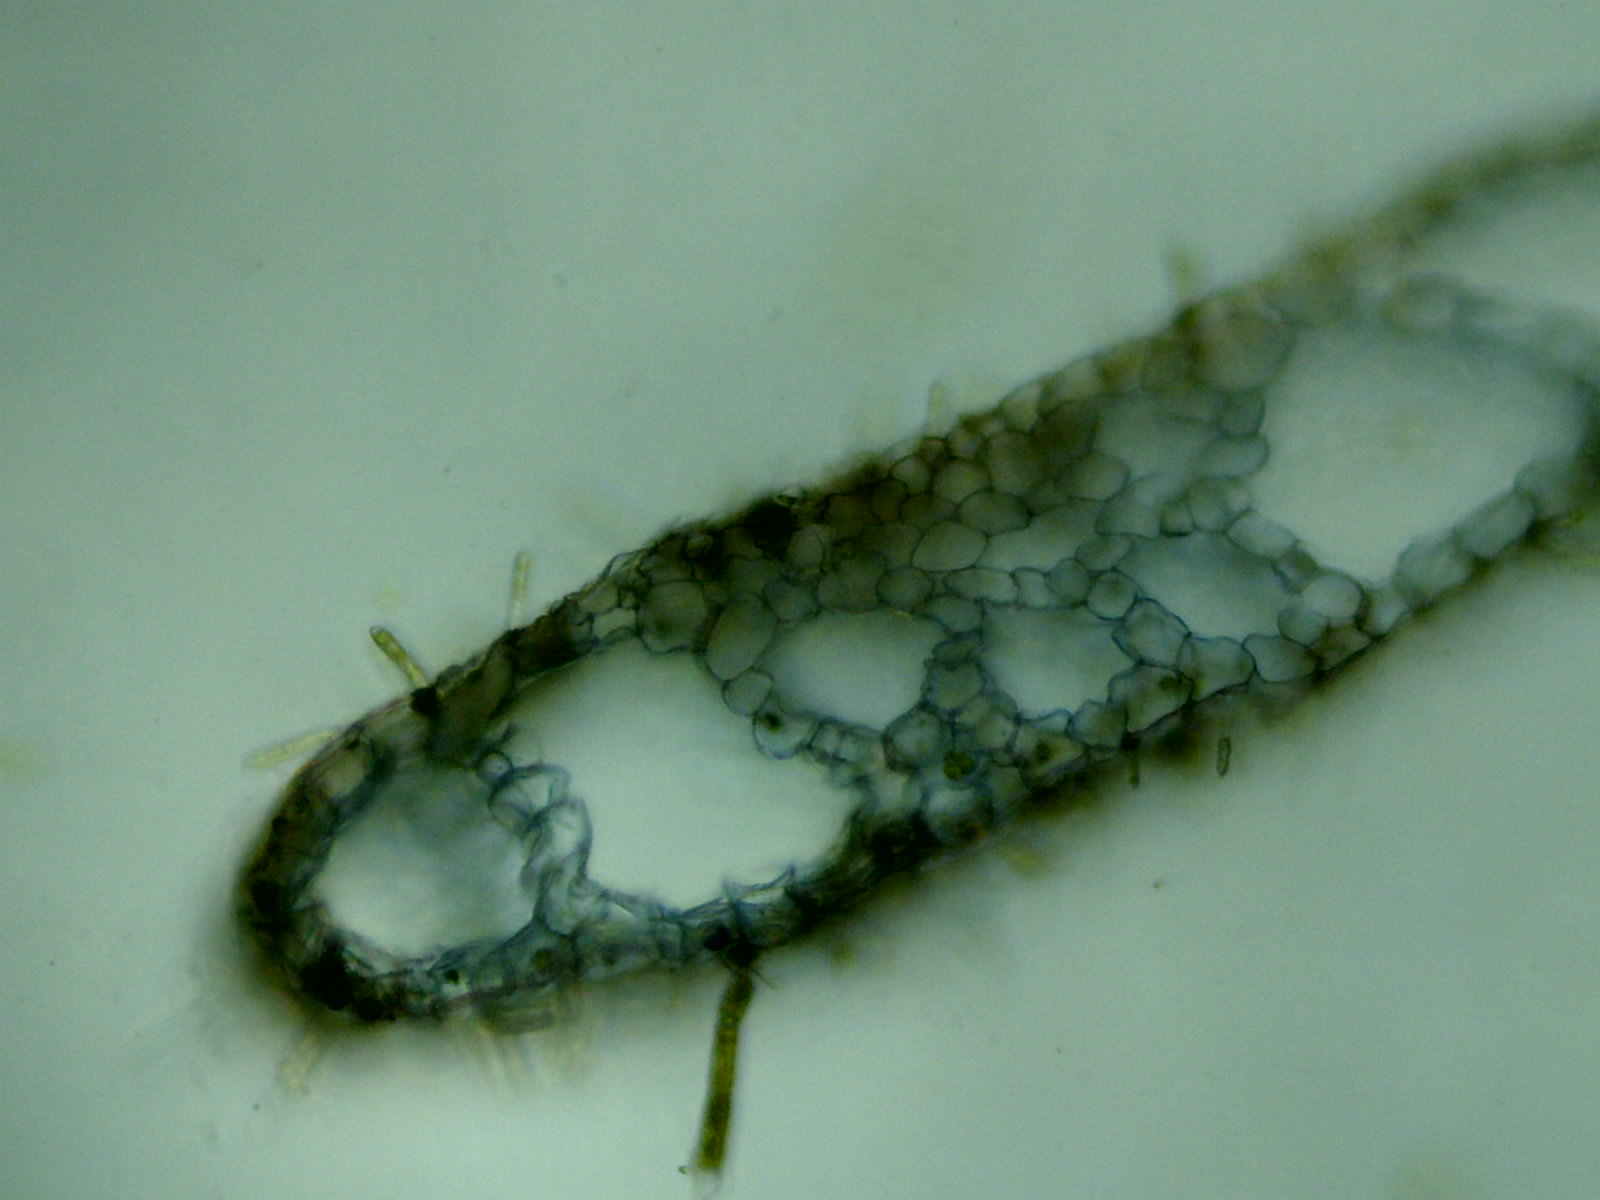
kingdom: Plantae
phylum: Marchantiophyta
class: Marchantiopsida
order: Marchantiales
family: Ricciaceae
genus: Riccia
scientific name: Riccia fluitans
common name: Floating crystalwort
